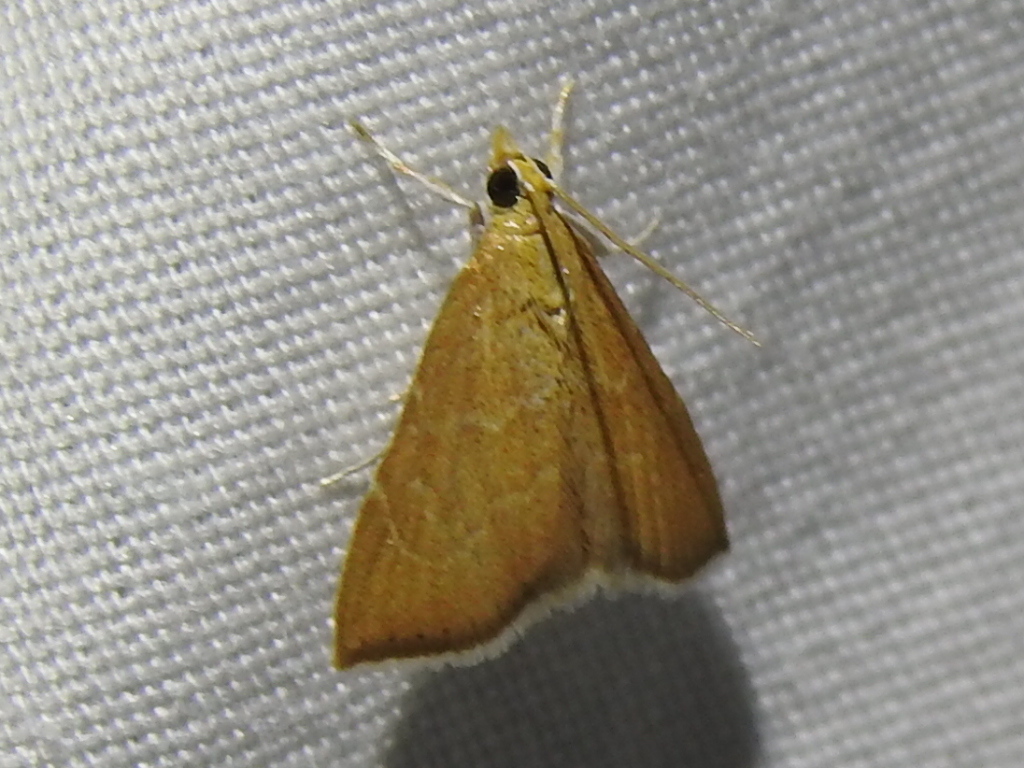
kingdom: Animalia
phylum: Arthropoda
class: Insecta
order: Lepidoptera
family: Crambidae
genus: Glaphyria
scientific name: Glaphyria invisalis
